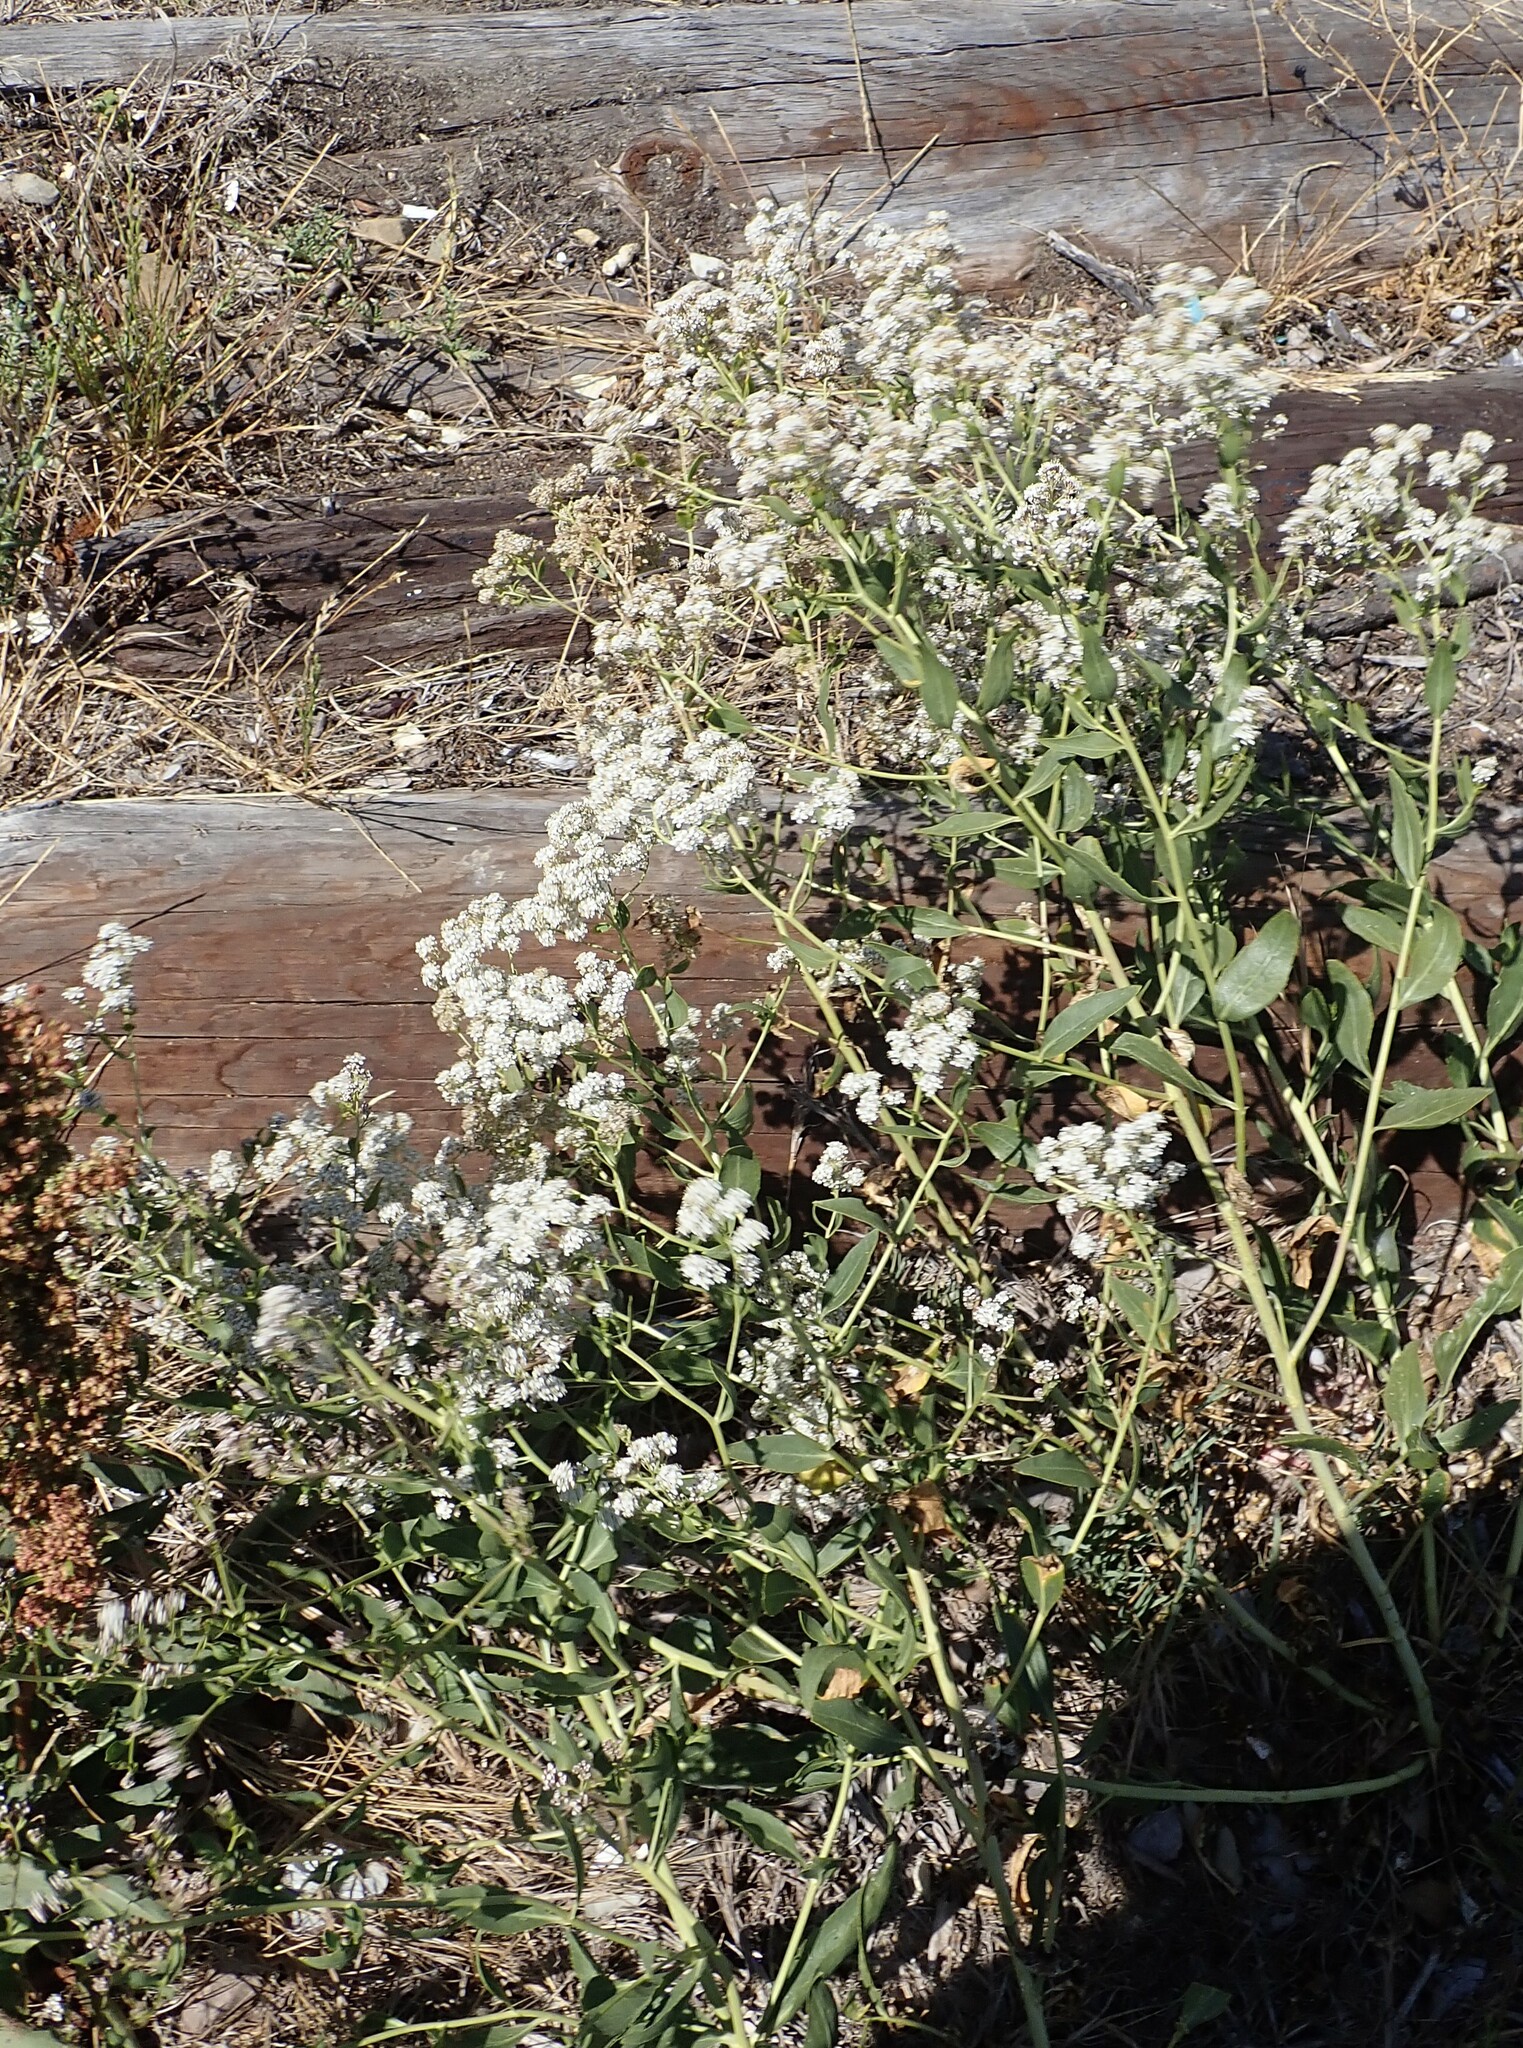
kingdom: Plantae
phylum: Tracheophyta
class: Magnoliopsida
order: Brassicales
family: Brassicaceae
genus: Lepidium
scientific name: Lepidium latifolium
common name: Dittander
